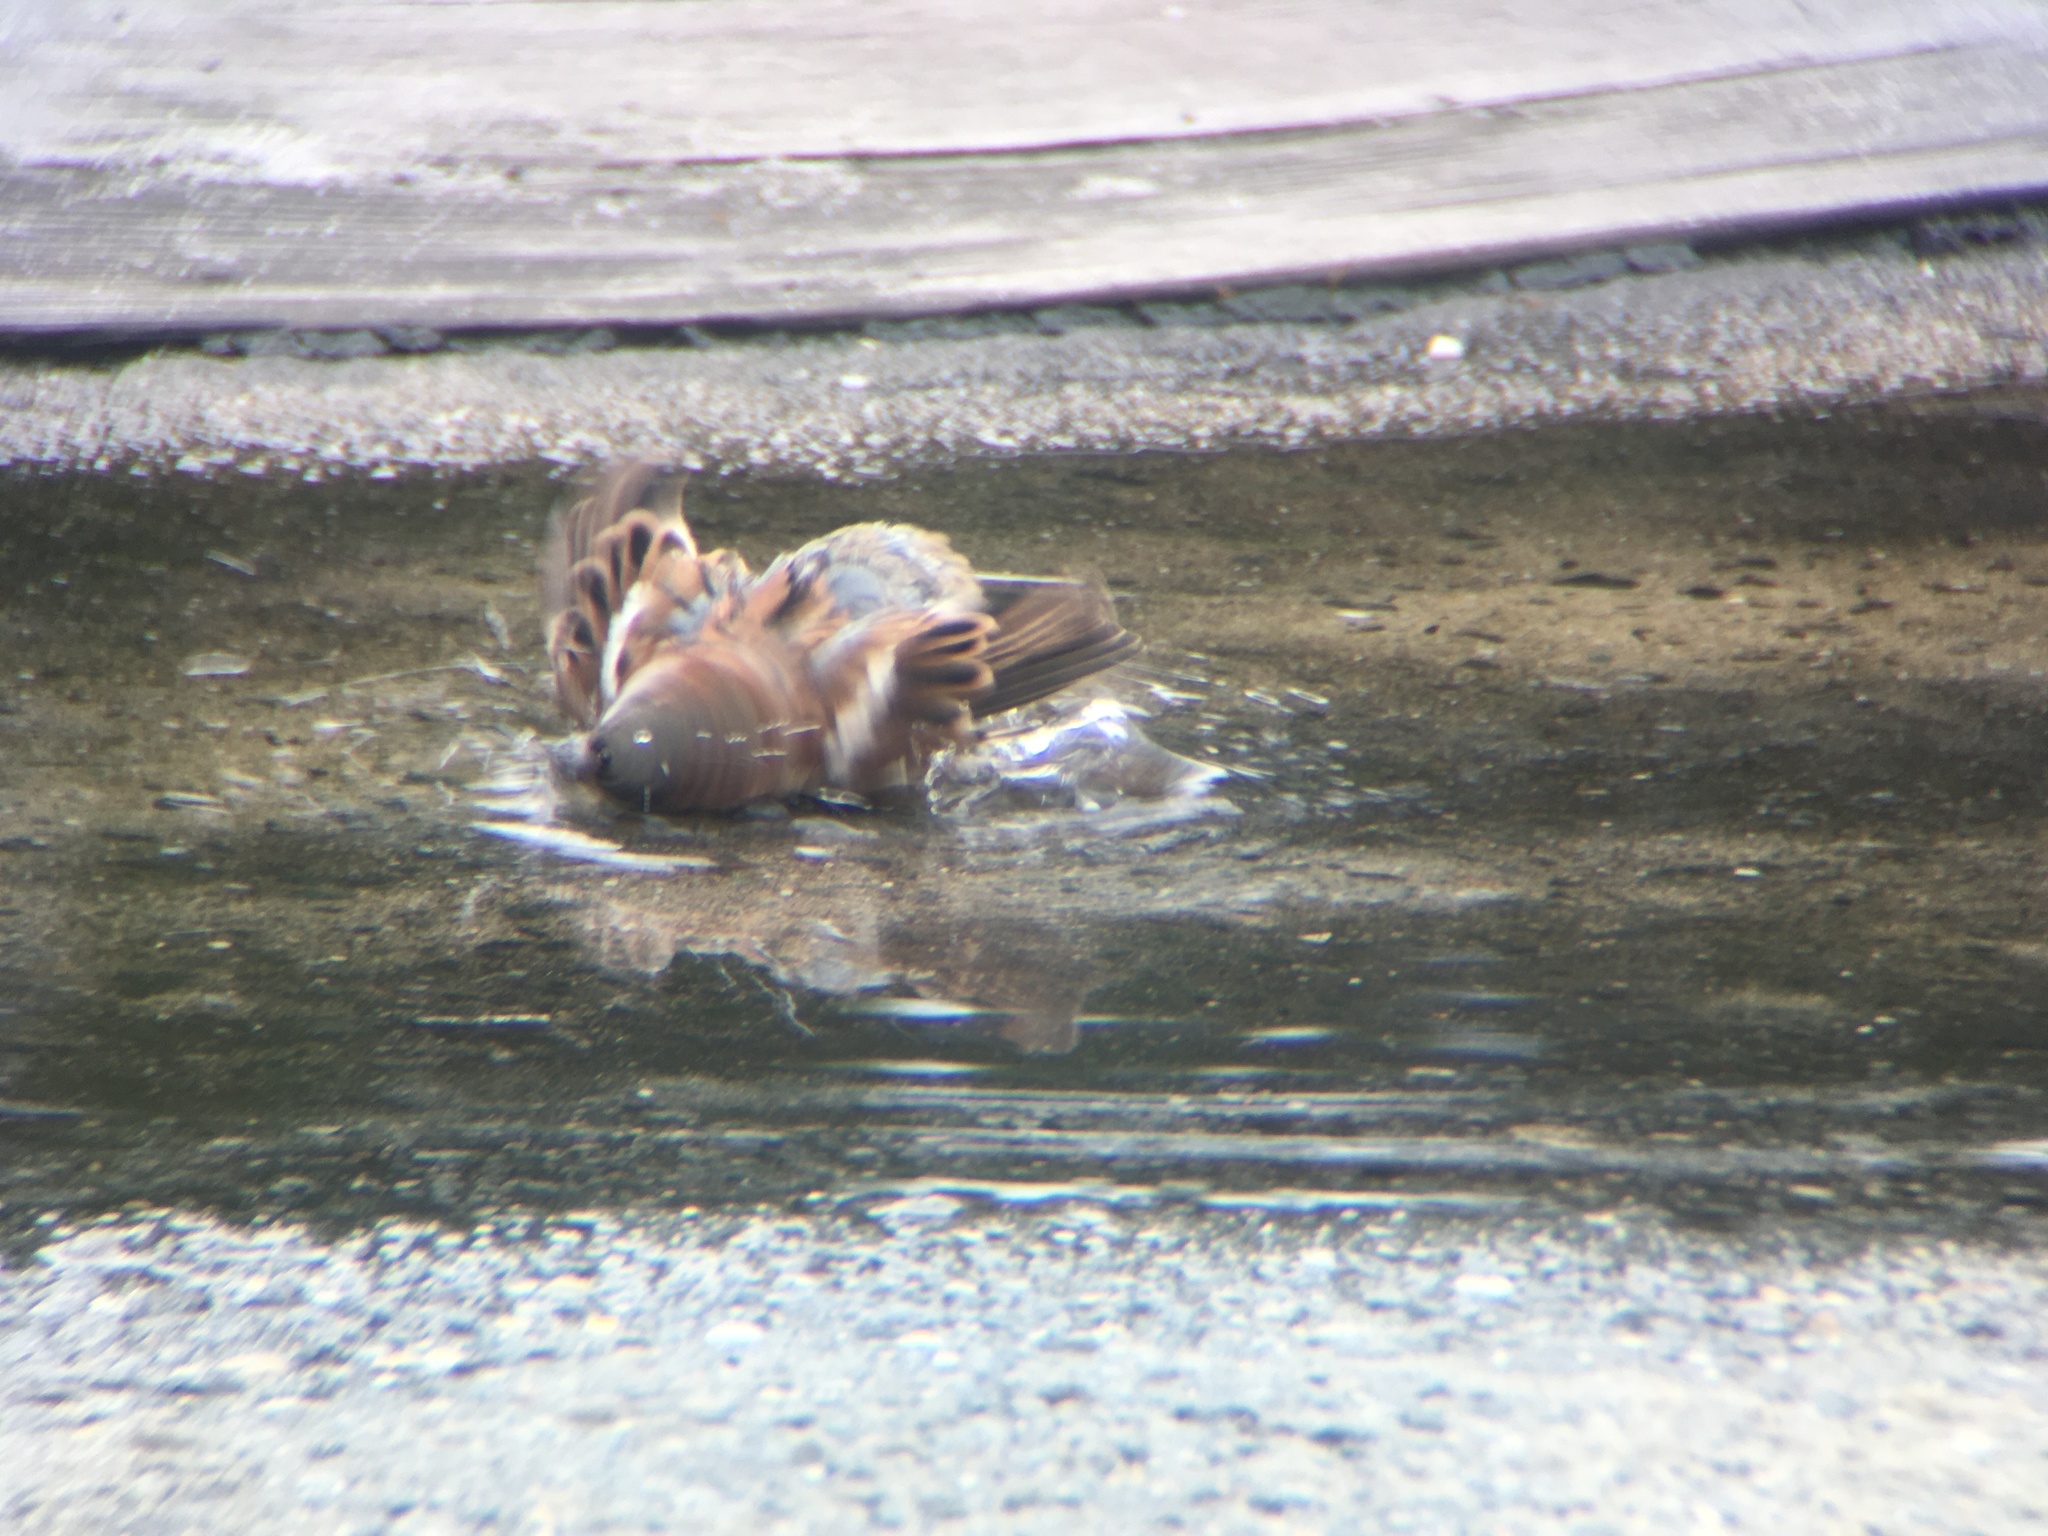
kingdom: Animalia
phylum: Chordata
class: Aves
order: Passeriformes
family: Passeridae
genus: Passer
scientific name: Passer domesticus
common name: House sparrow
